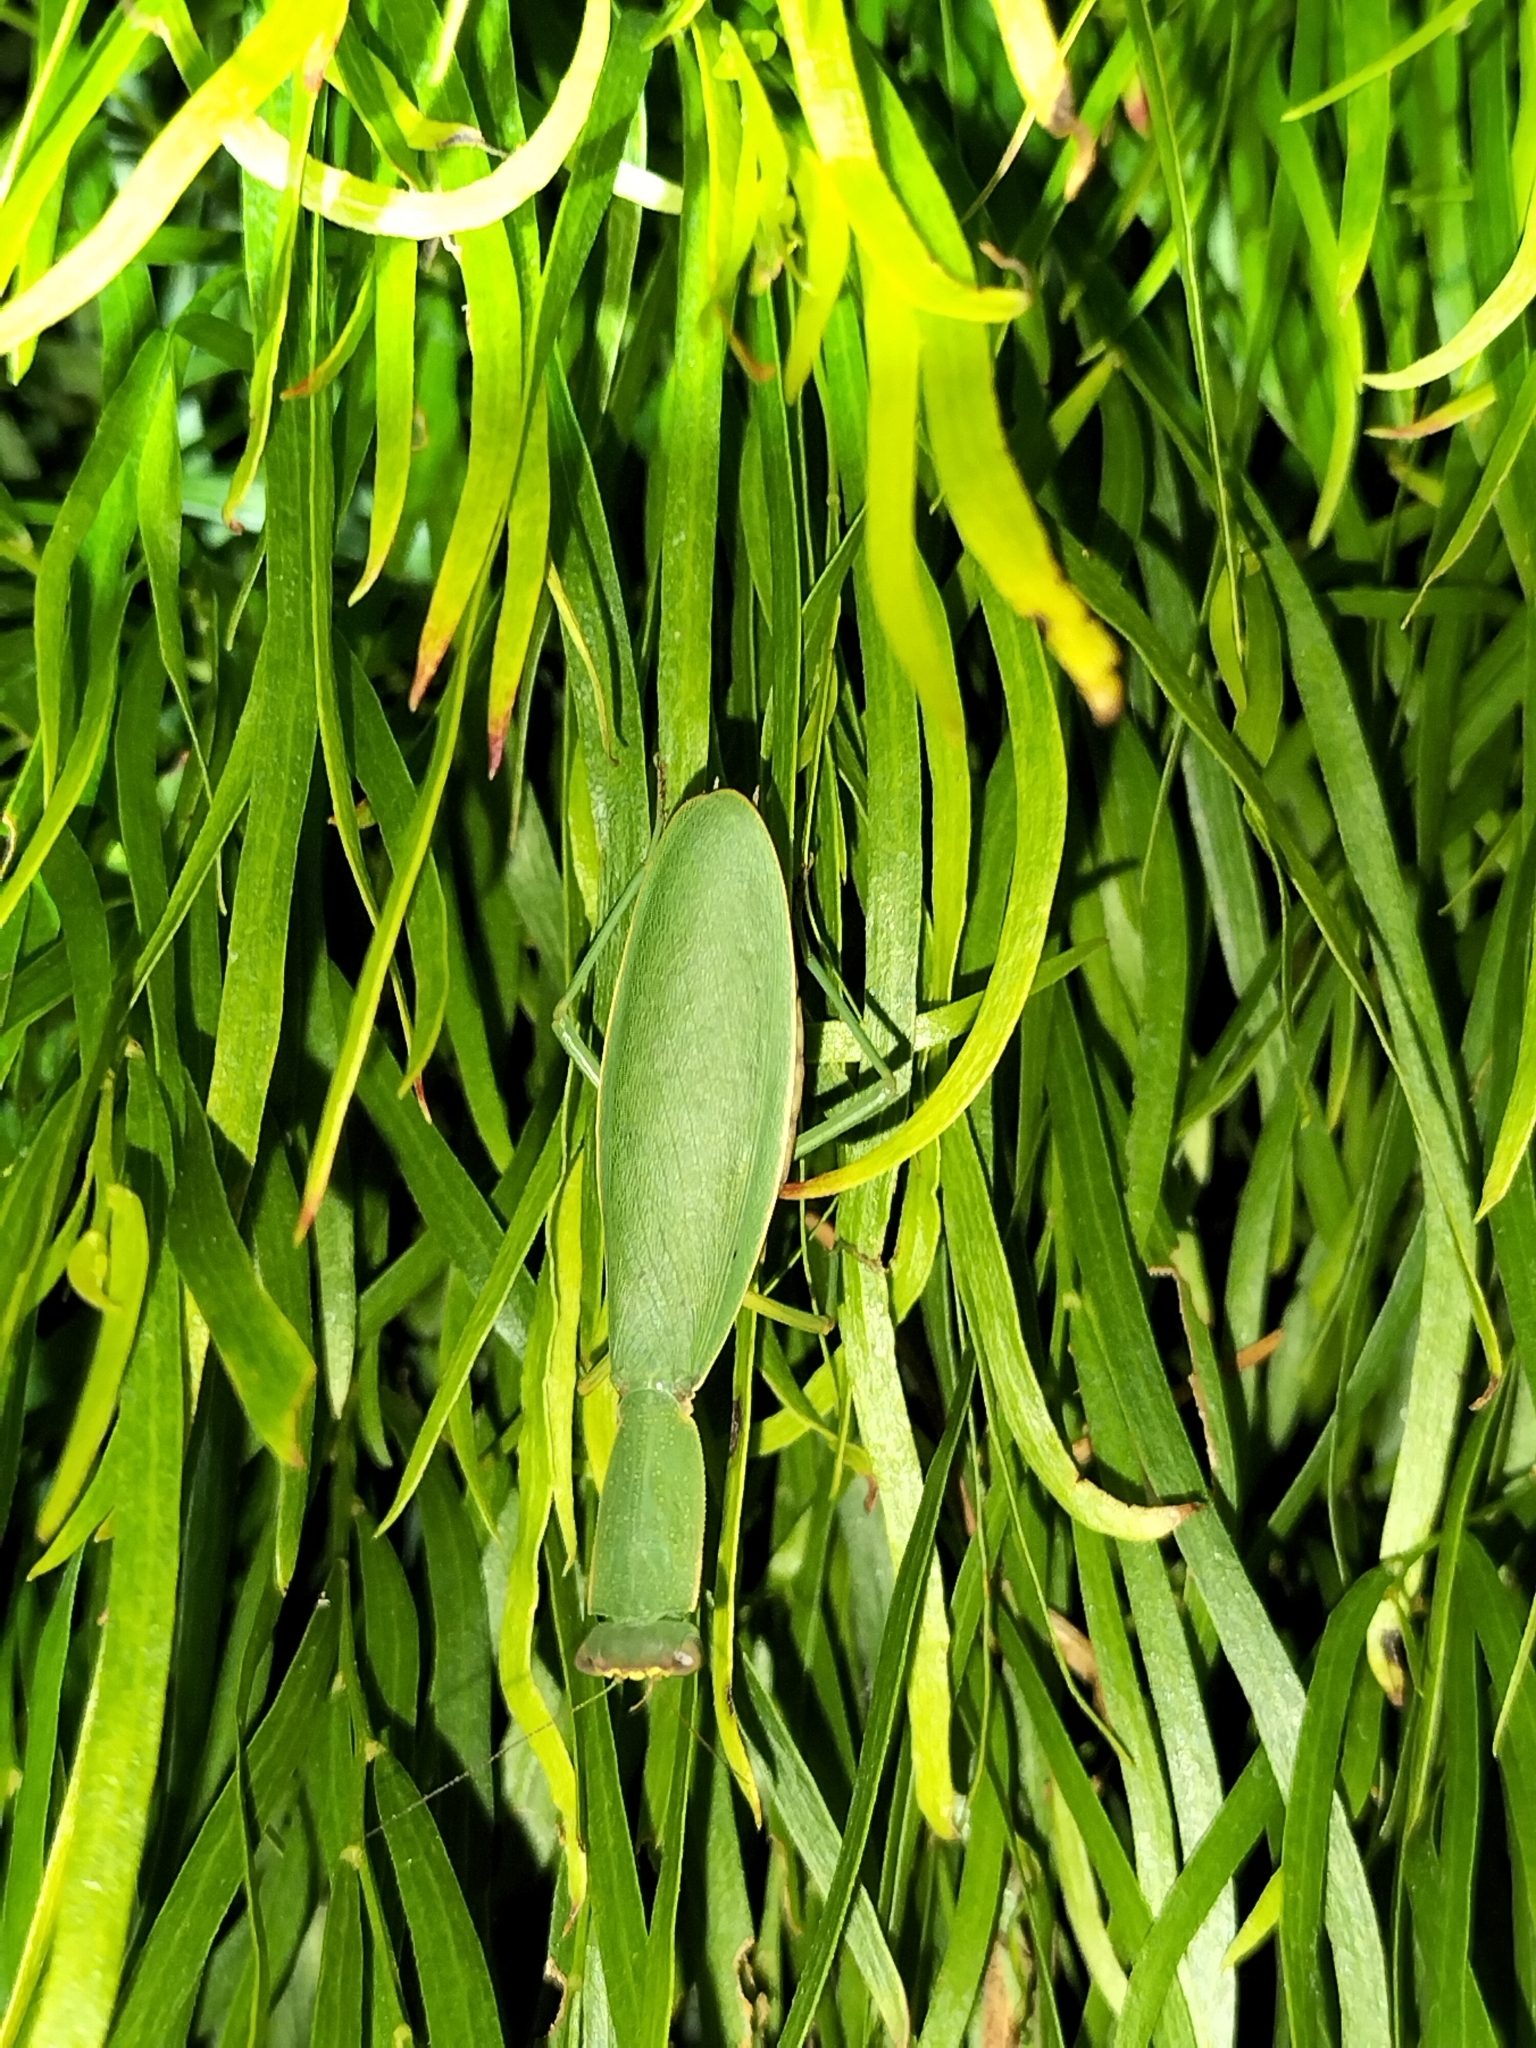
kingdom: Animalia
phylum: Arthropoda
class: Insecta
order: Mantodea
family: Mantidae
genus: Orthodera
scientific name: Orthodera novaezealandiae
